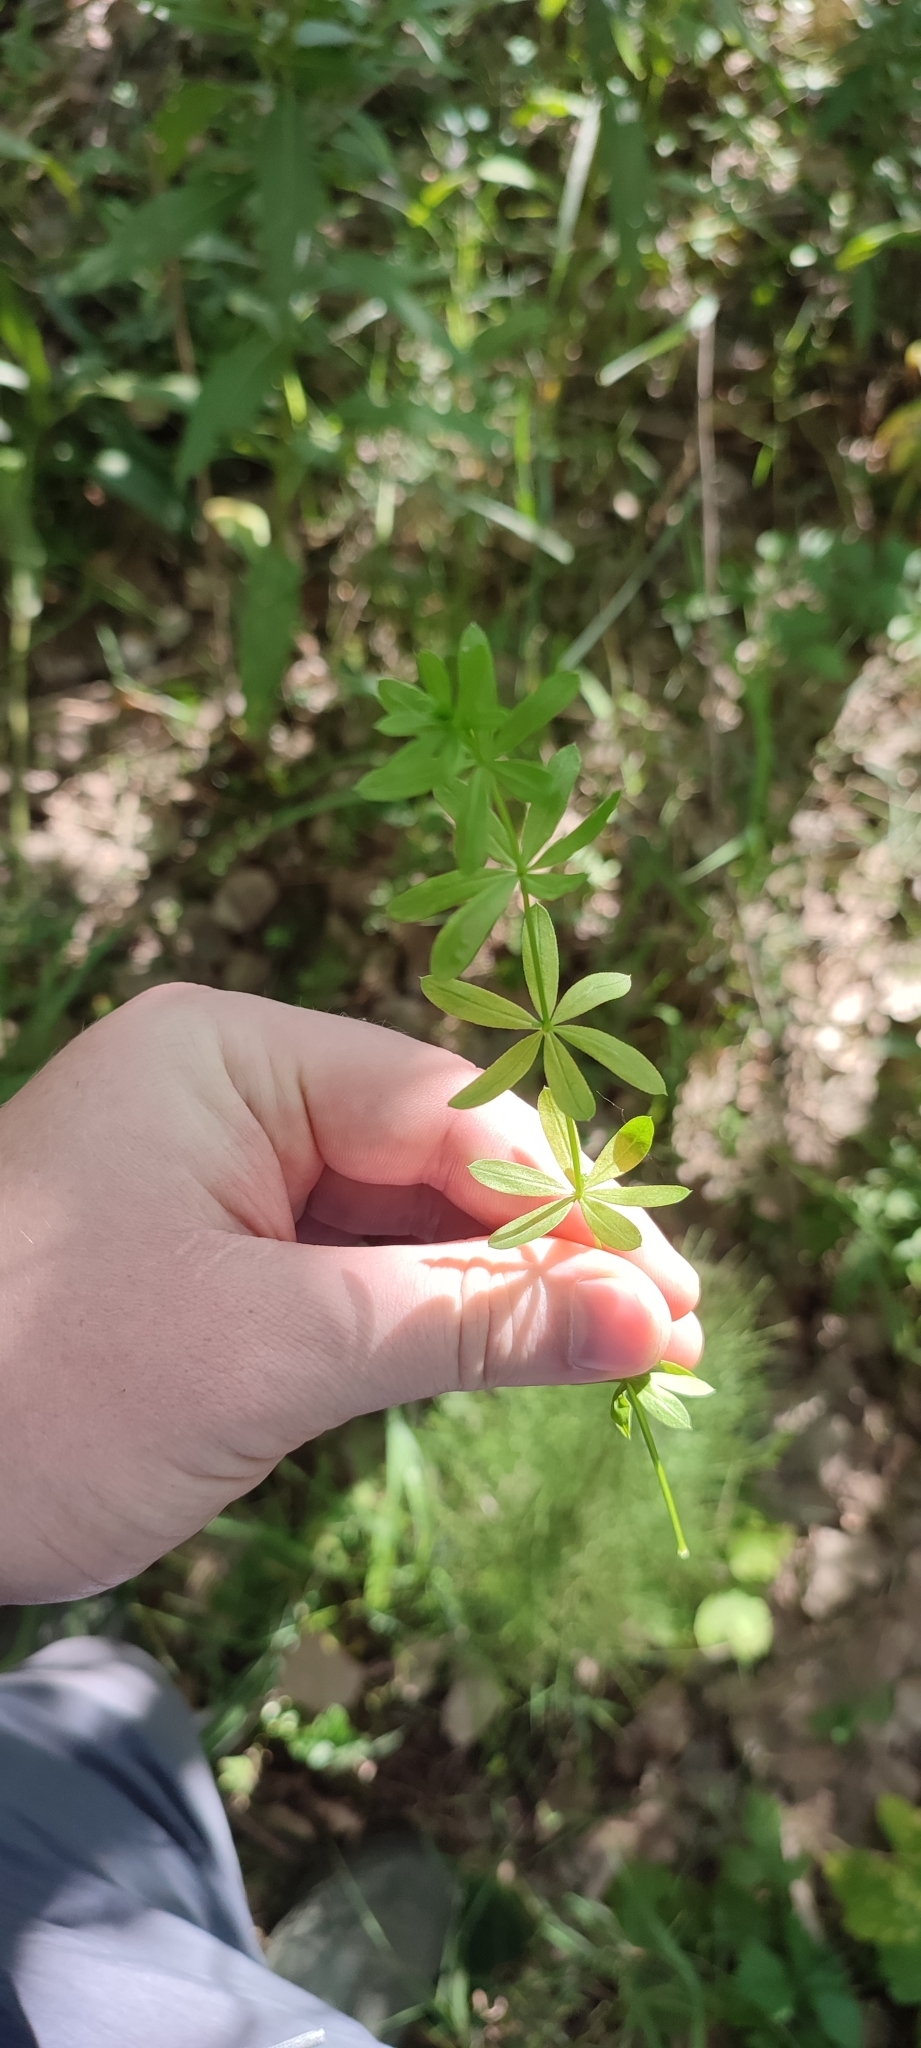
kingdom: Plantae
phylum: Tracheophyta
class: Magnoliopsida
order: Gentianales
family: Rubiaceae
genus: Galium
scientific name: Galium mollugo
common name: Hedge bedstraw
